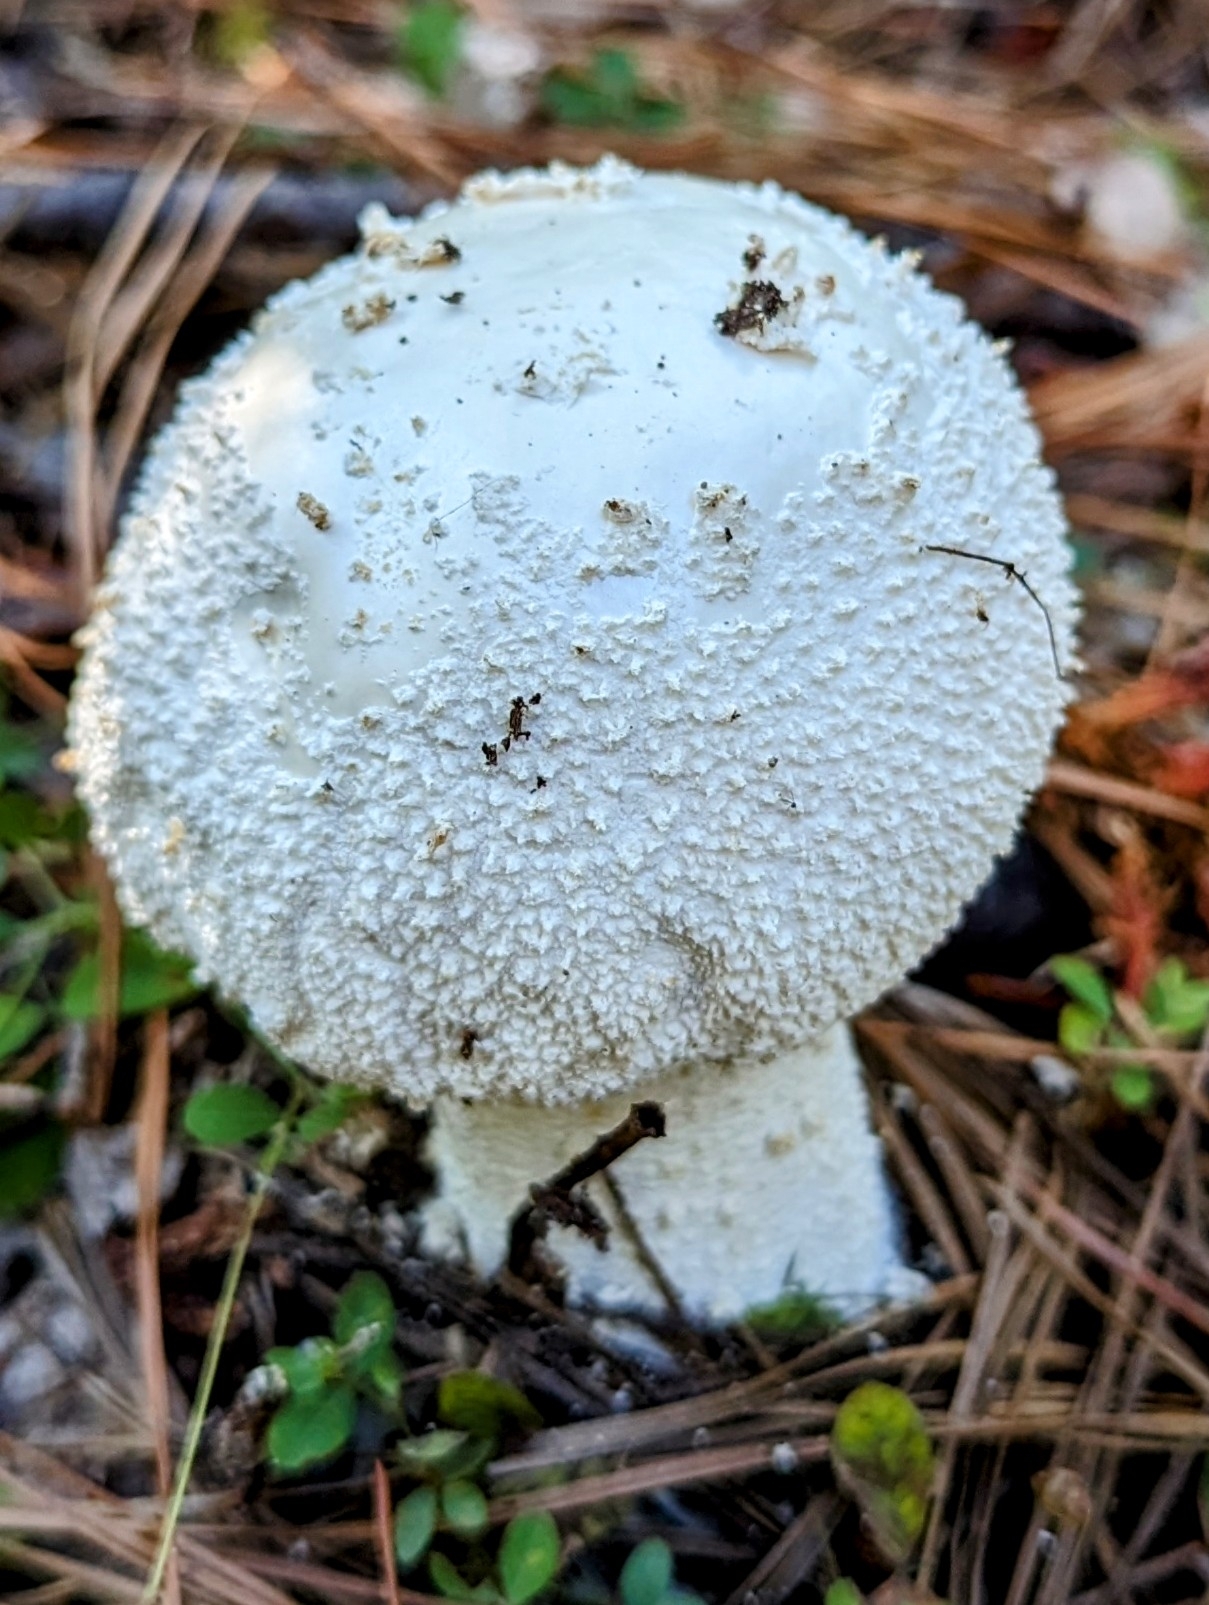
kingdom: Fungi
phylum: Basidiomycota
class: Agaricomycetes
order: Agaricales
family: Amanitaceae
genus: Amanita
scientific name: Amanita polypyramis
